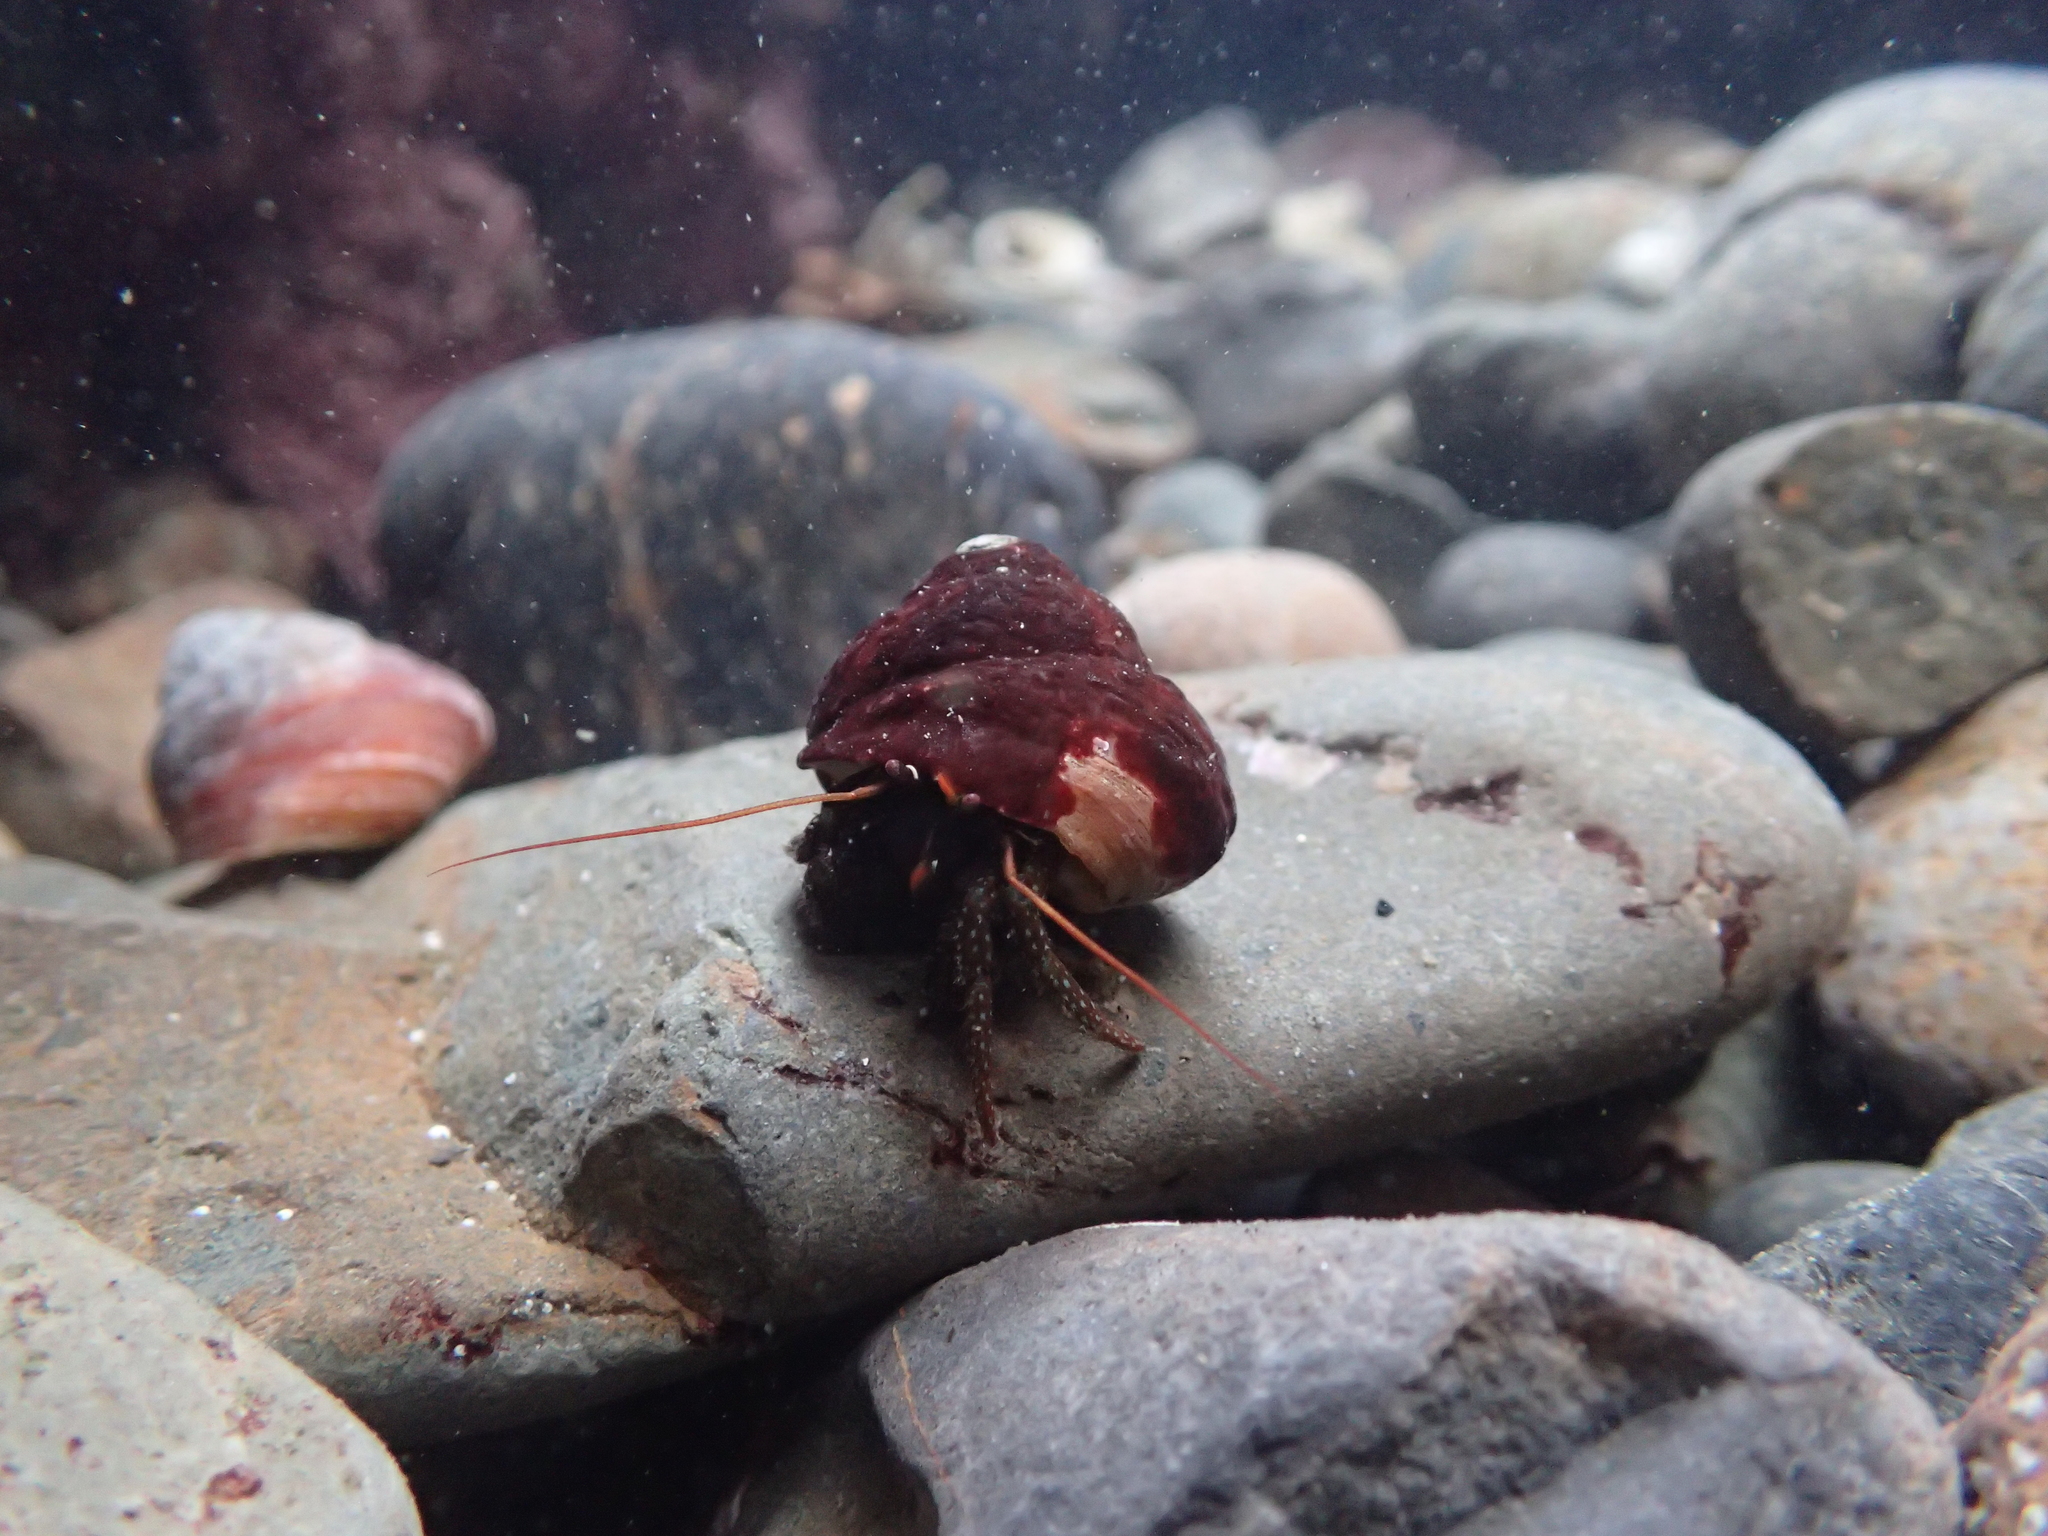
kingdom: Animalia
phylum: Arthropoda
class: Malacostraca
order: Decapoda
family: Paguridae
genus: Pagurus
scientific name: Pagurus granosimanus
